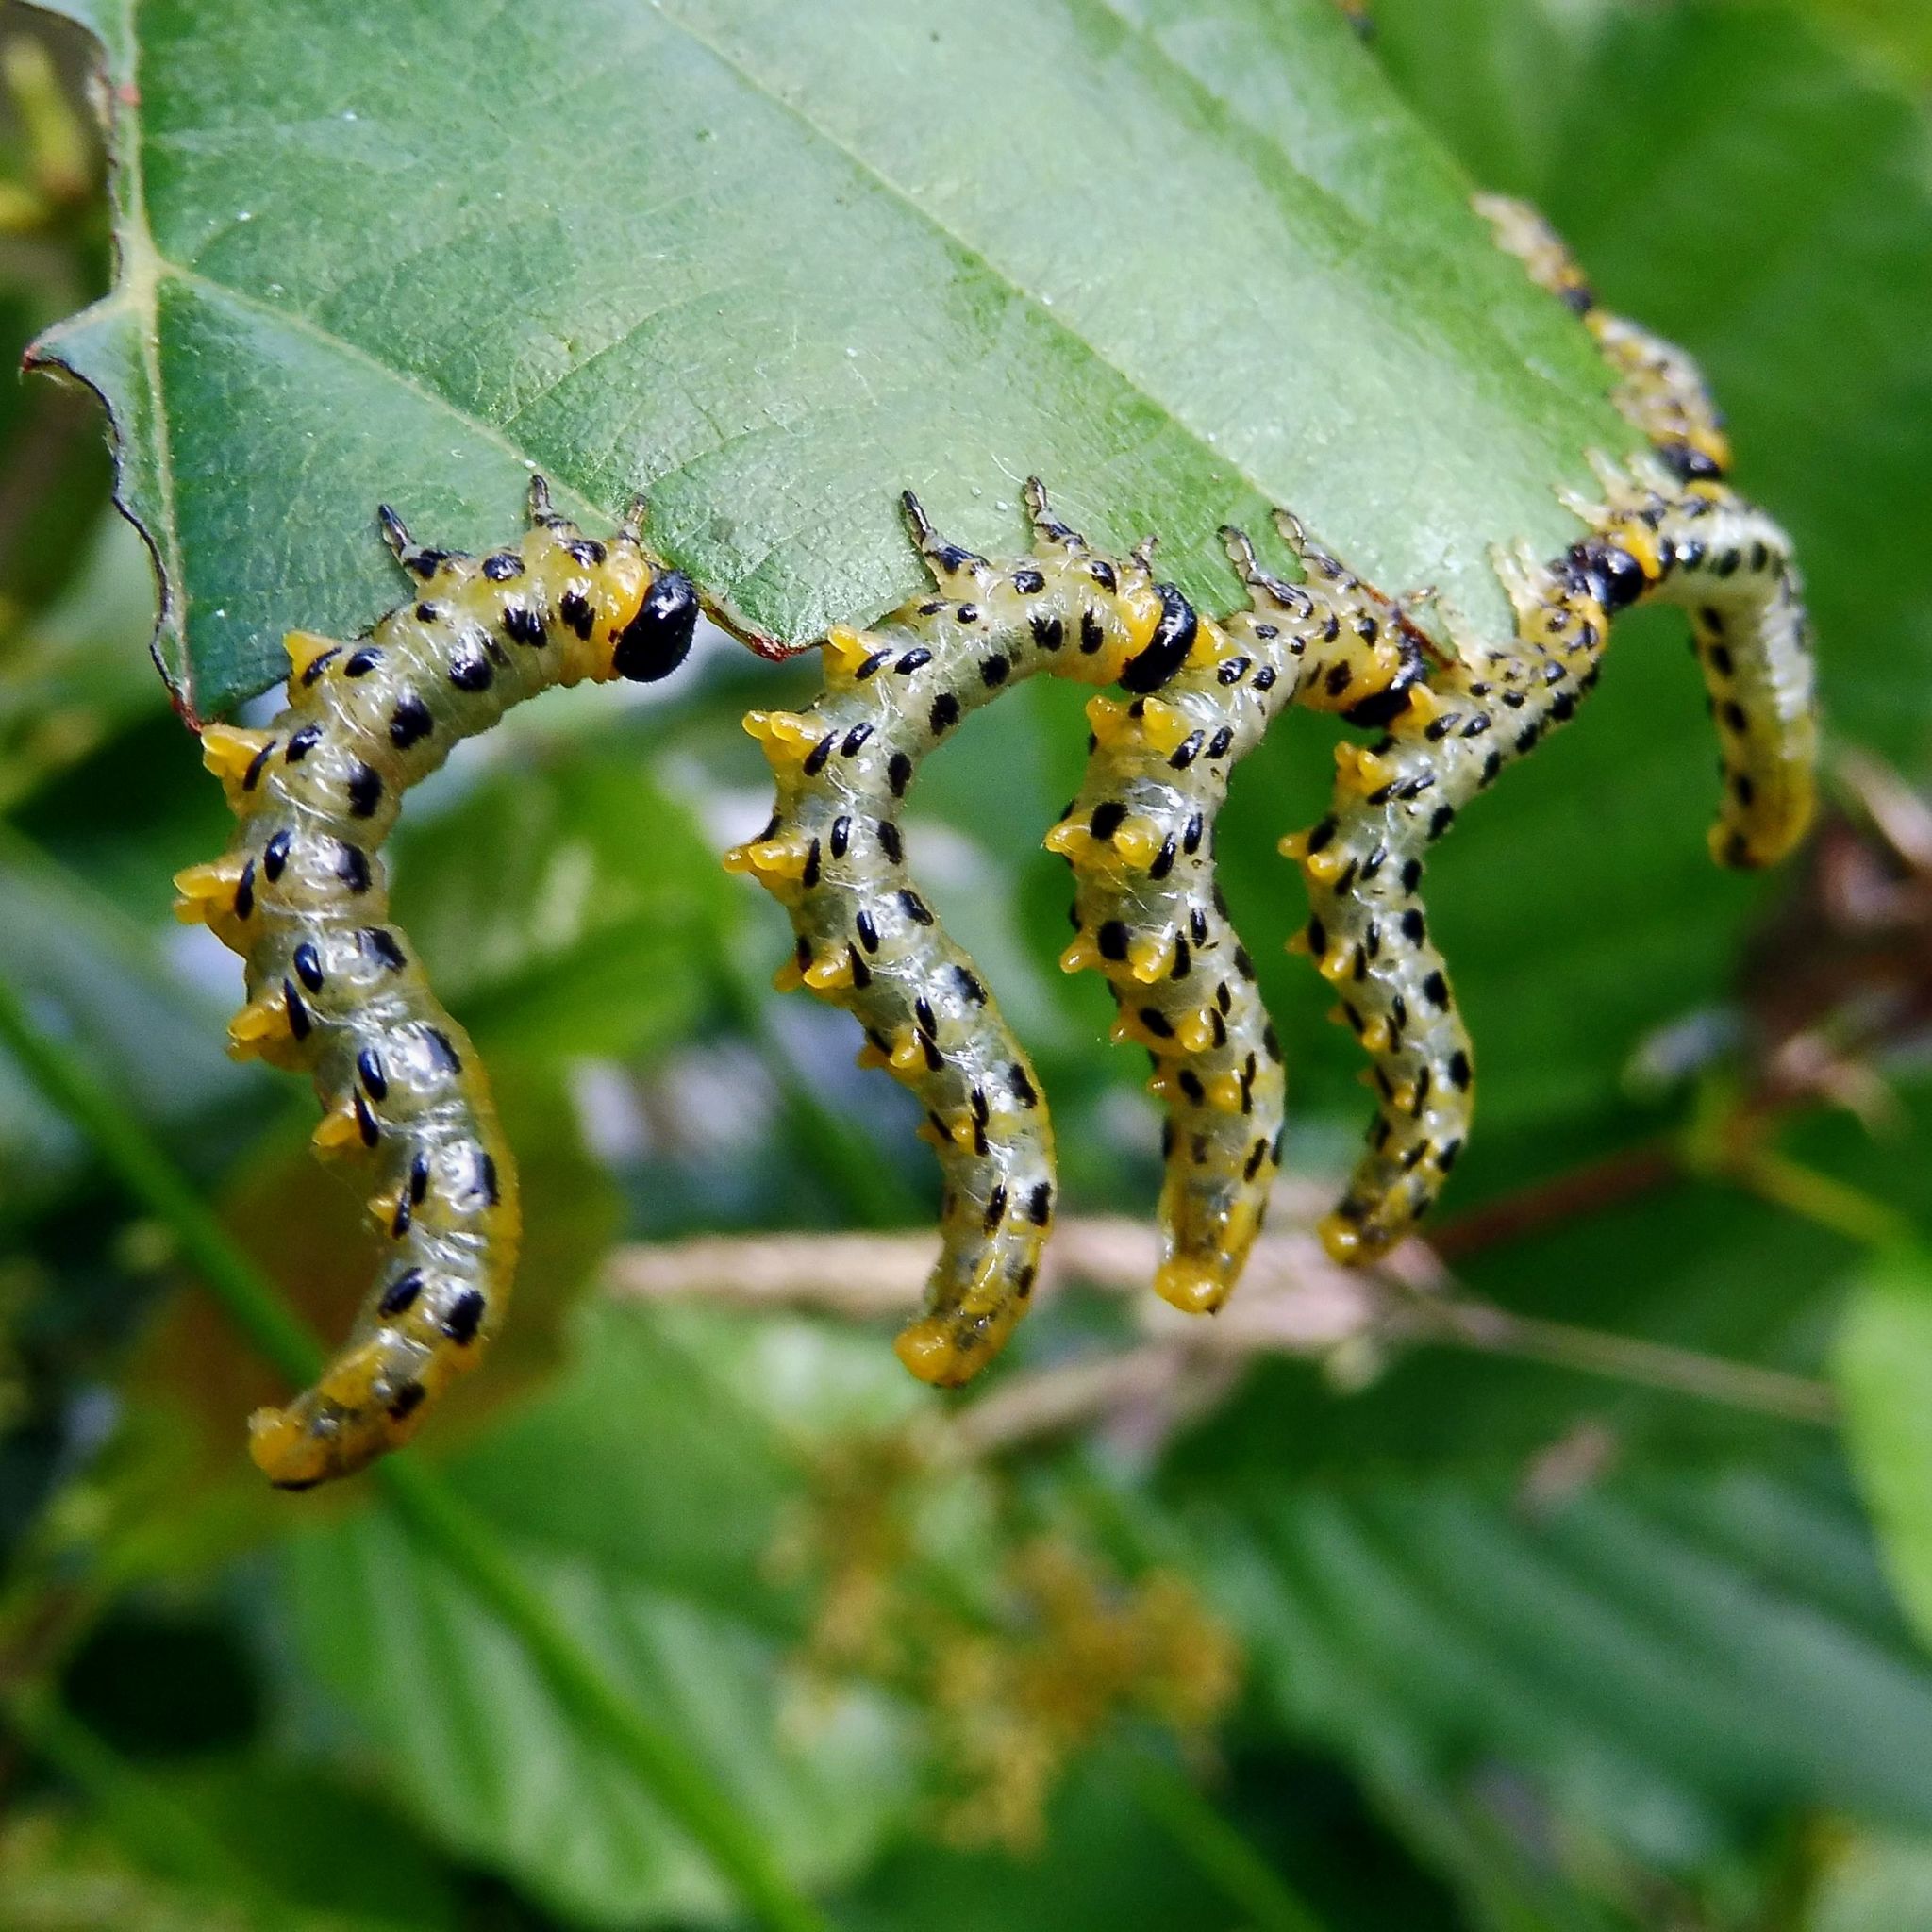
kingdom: Animalia
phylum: Arthropoda
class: Insecta
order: Hymenoptera
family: Tenthredinidae
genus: Craesus
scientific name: Craesus septentrionalis
